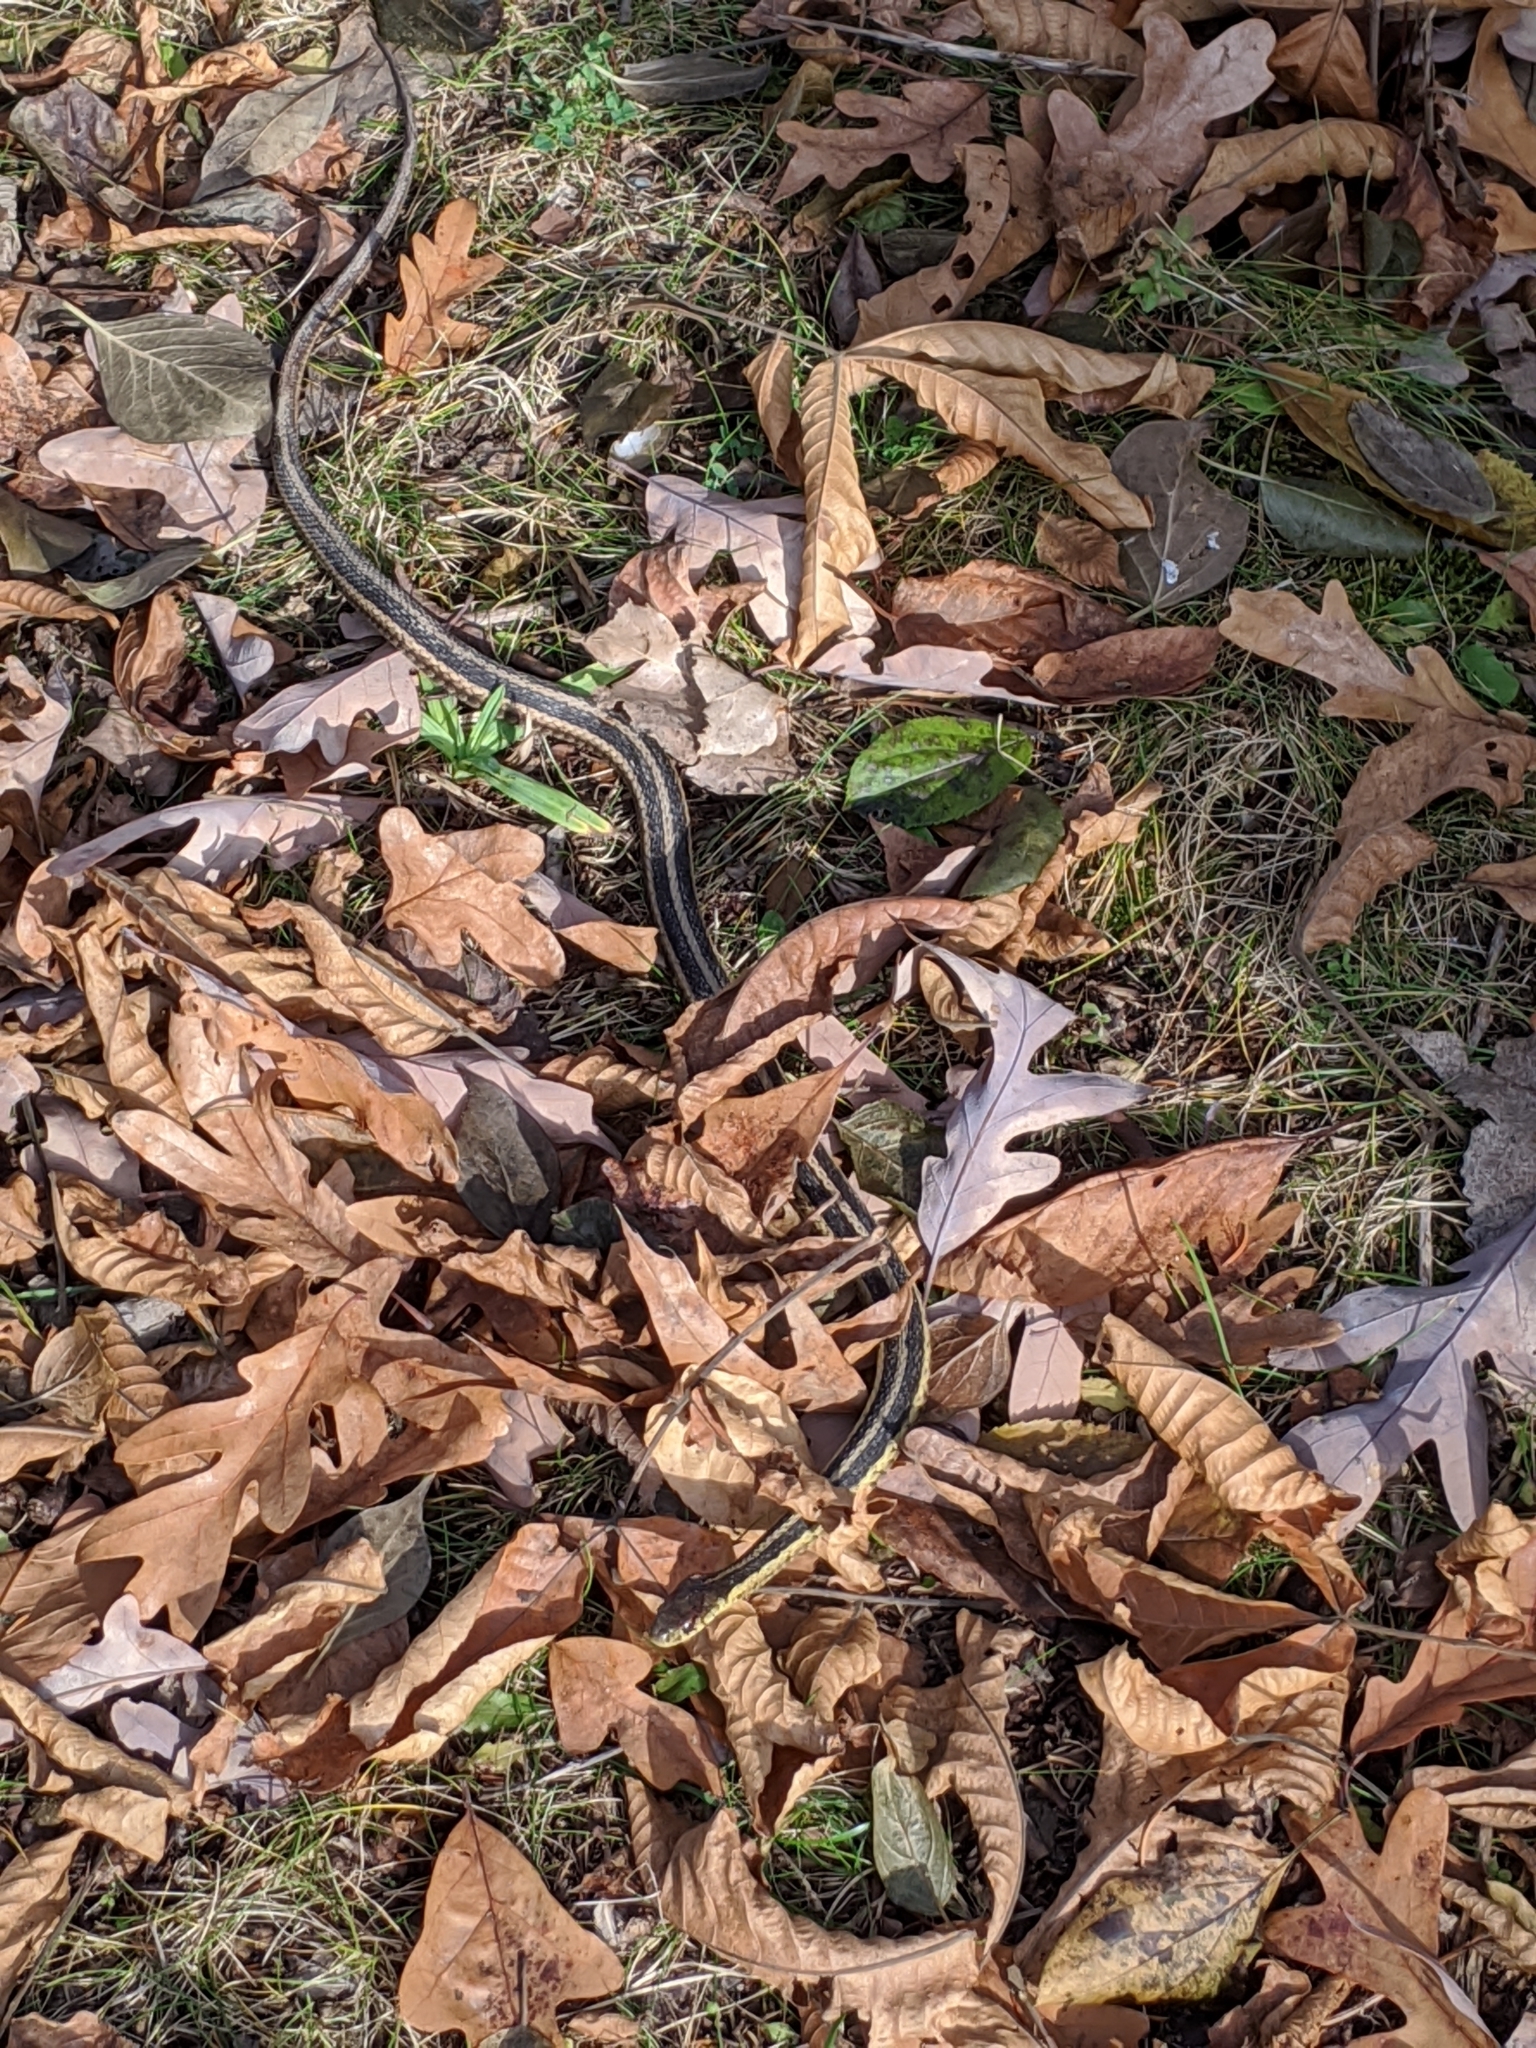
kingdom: Animalia
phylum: Chordata
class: Squamata
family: Colubridae
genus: Thamnophis
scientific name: Thamnophis sirtalis
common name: Common garter snake
